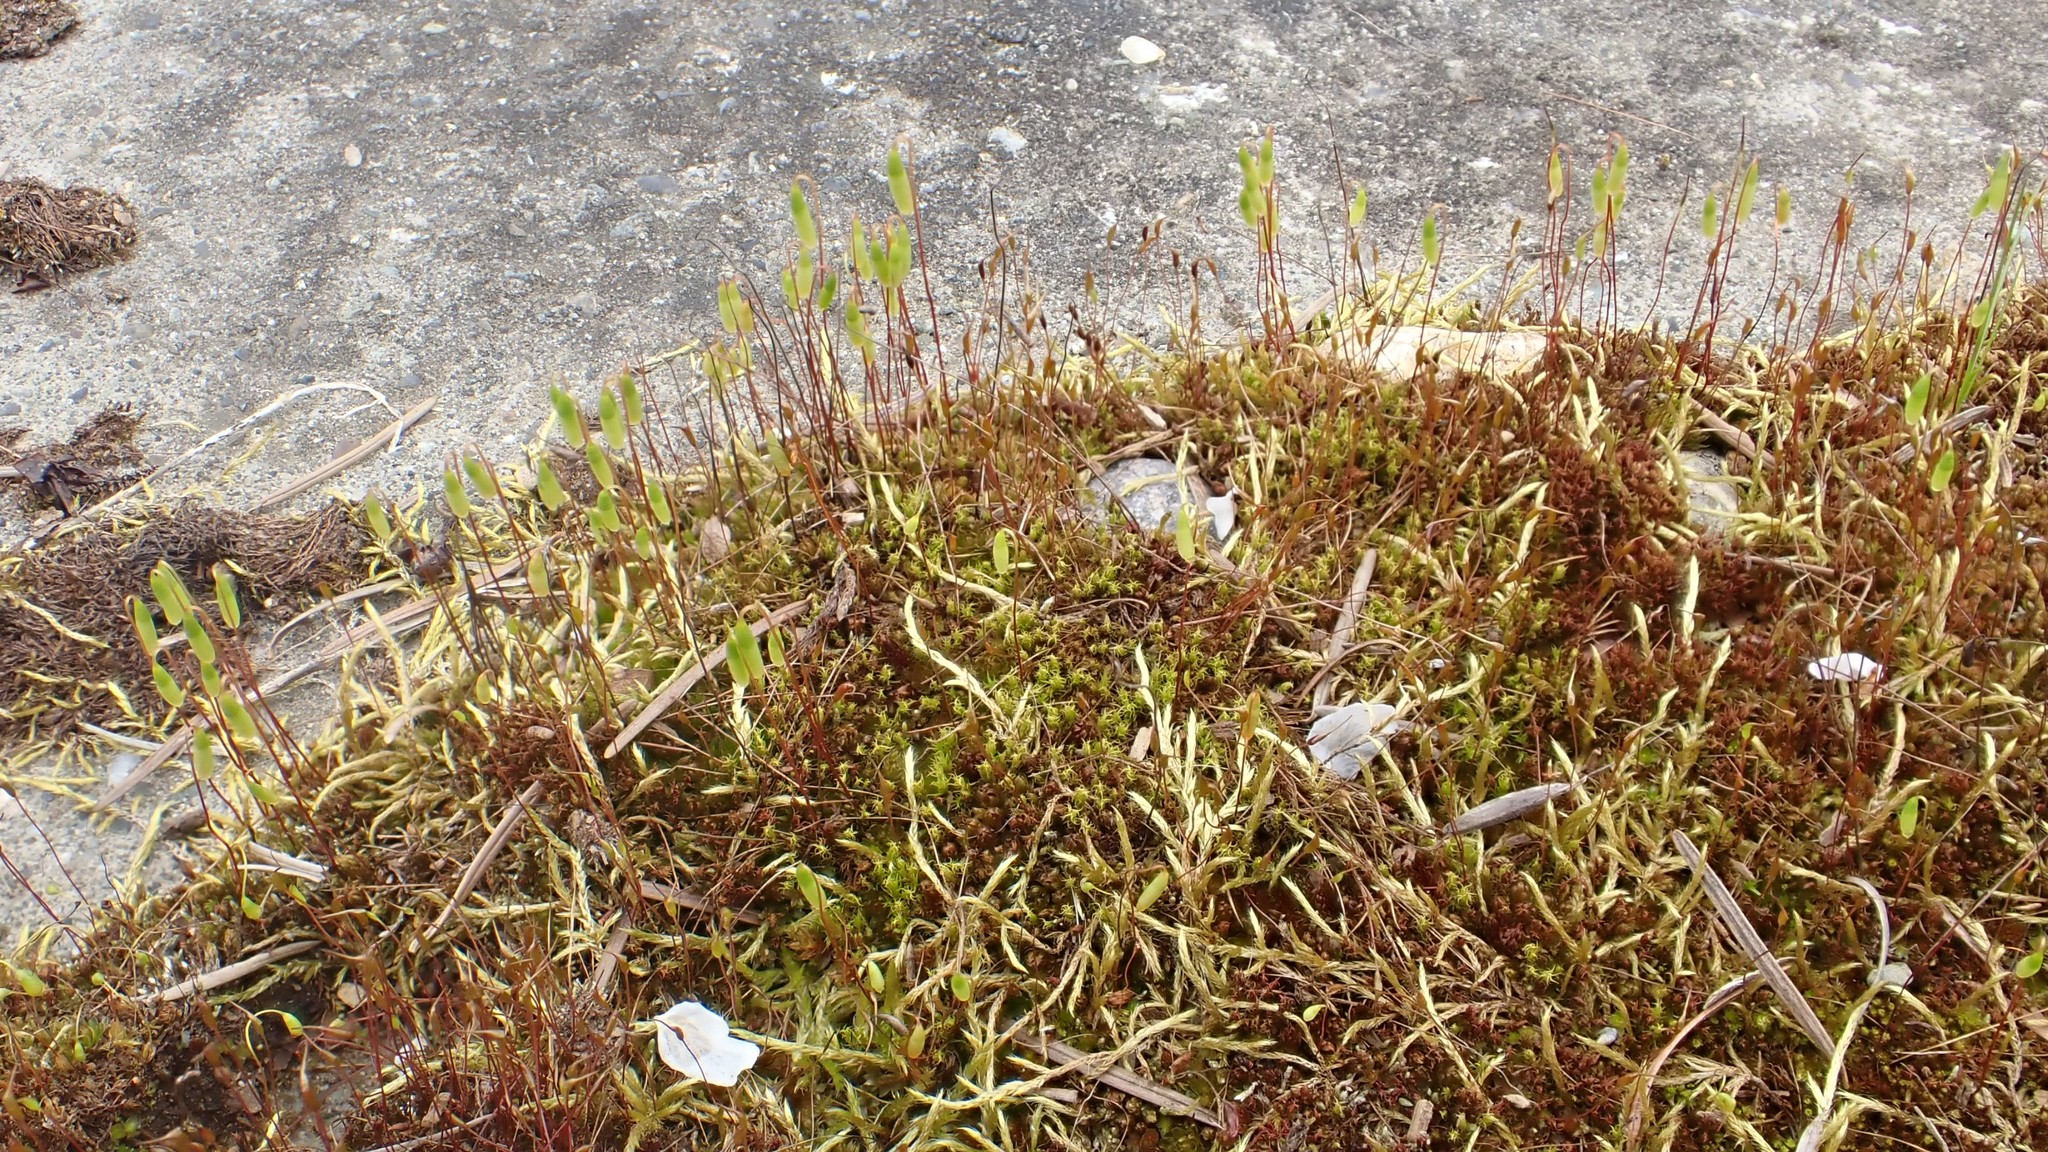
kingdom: Plantae
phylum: Bryophyta
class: Bryopsida
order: Dicranales
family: Ditrichaceae
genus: Ceratodon
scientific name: Ceratodon purpureus
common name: Redshank
